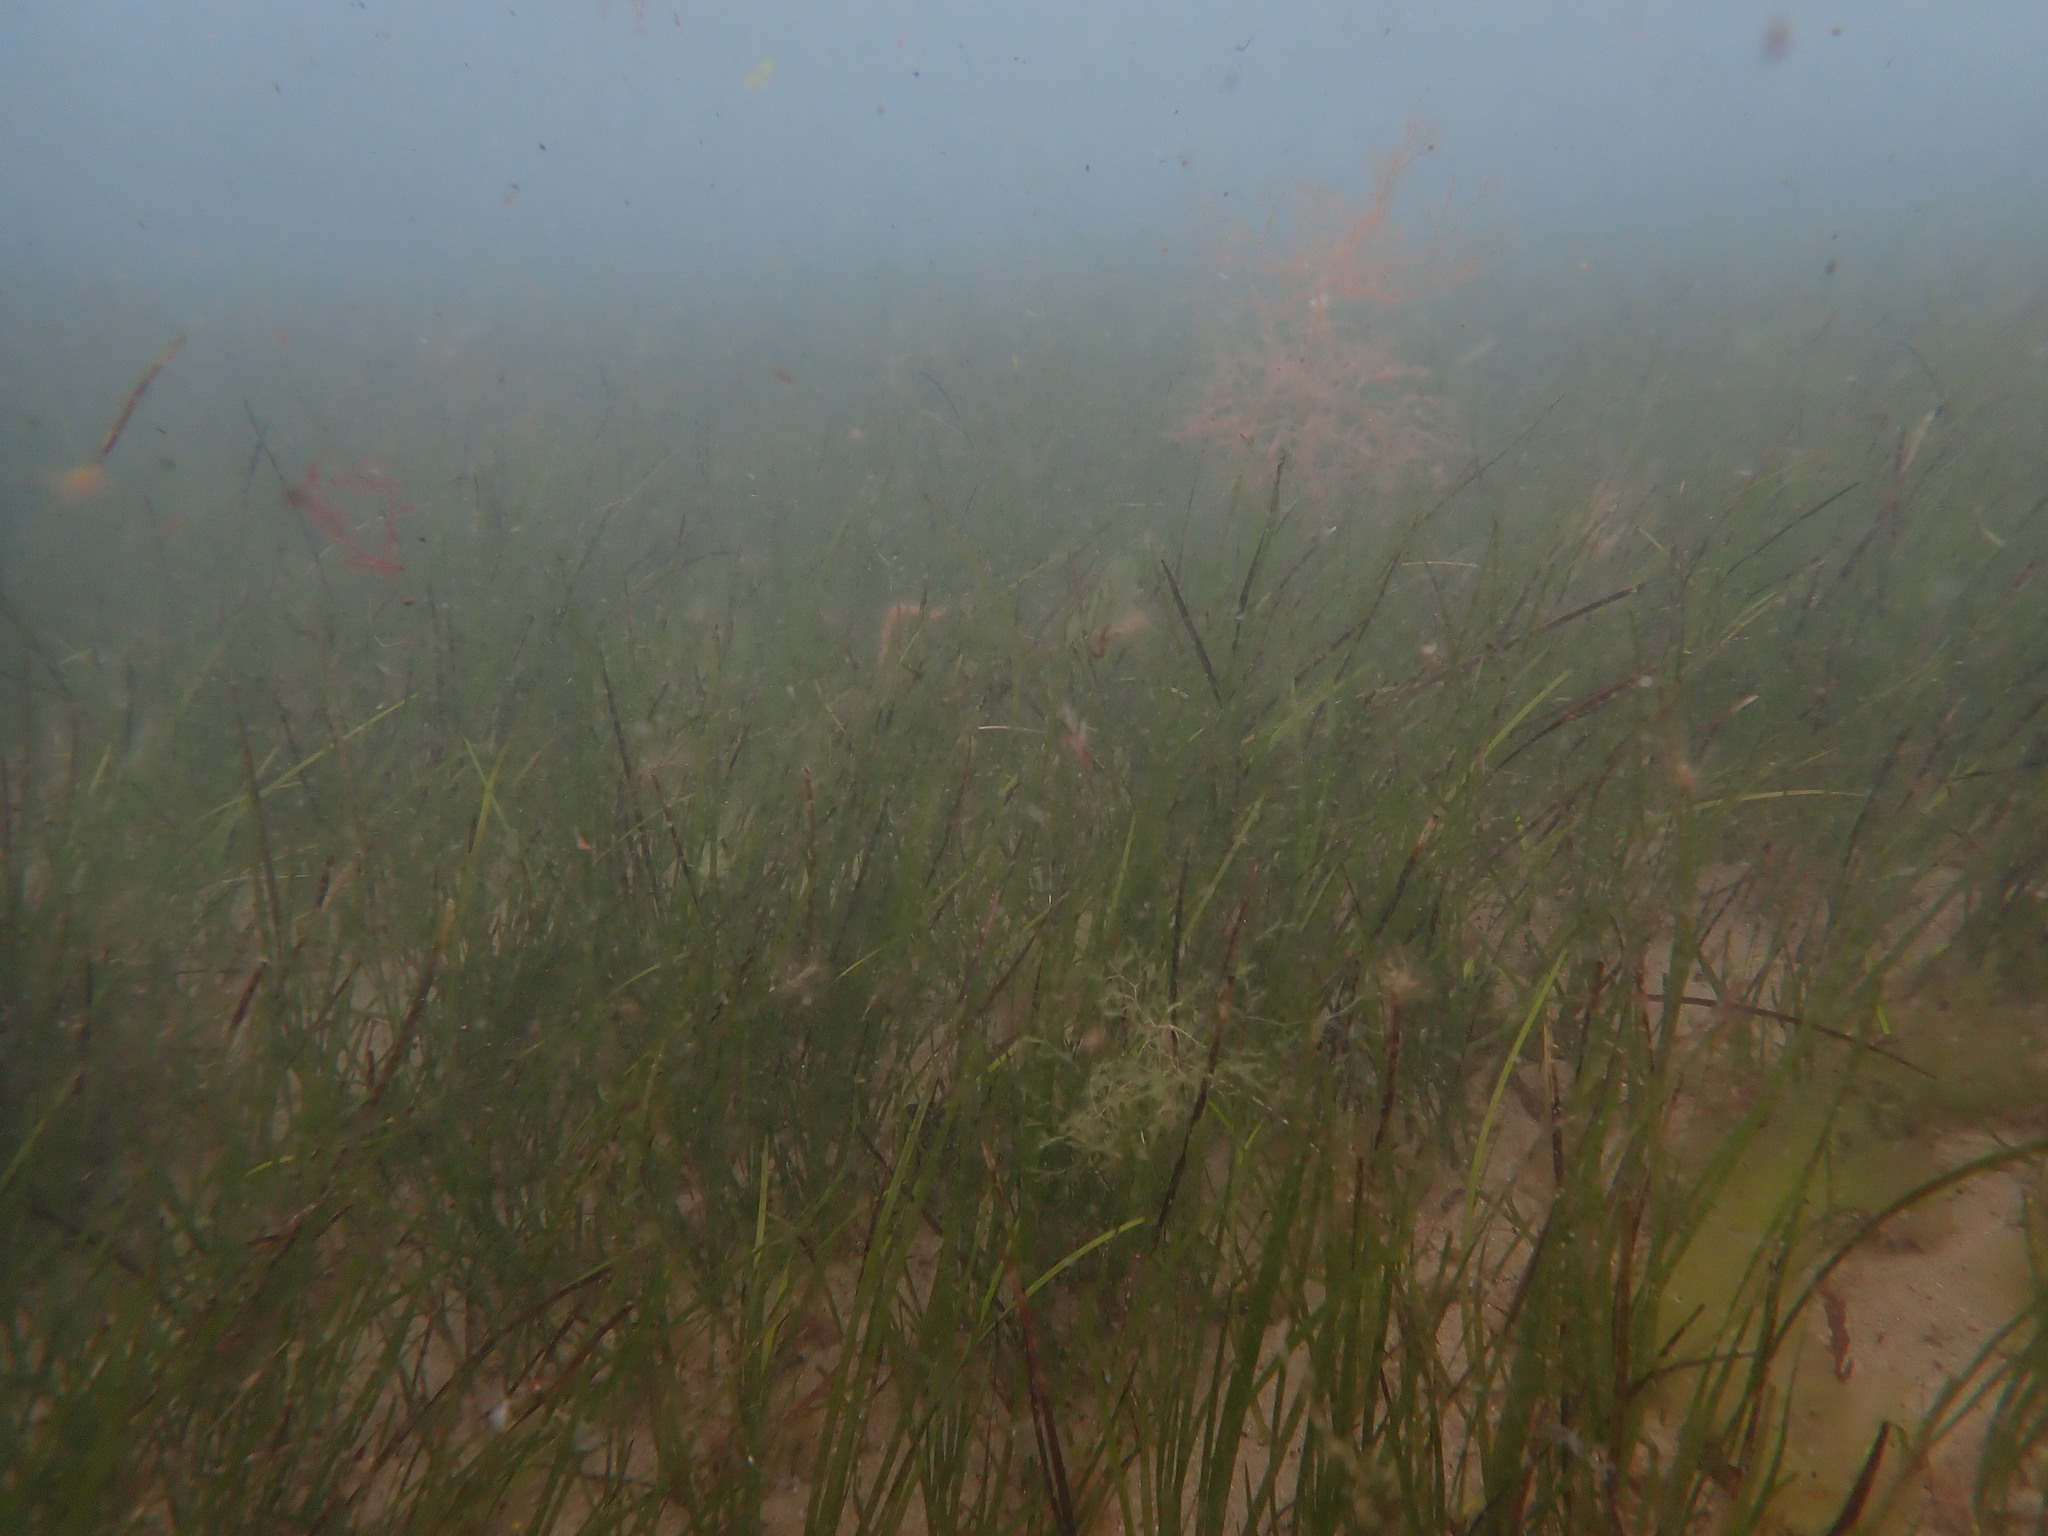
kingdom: Plantae
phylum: Tracheophyta
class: Liliopsida
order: Alismatales
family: Zosteraceae
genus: Zostera
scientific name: Zostera novazelandica
